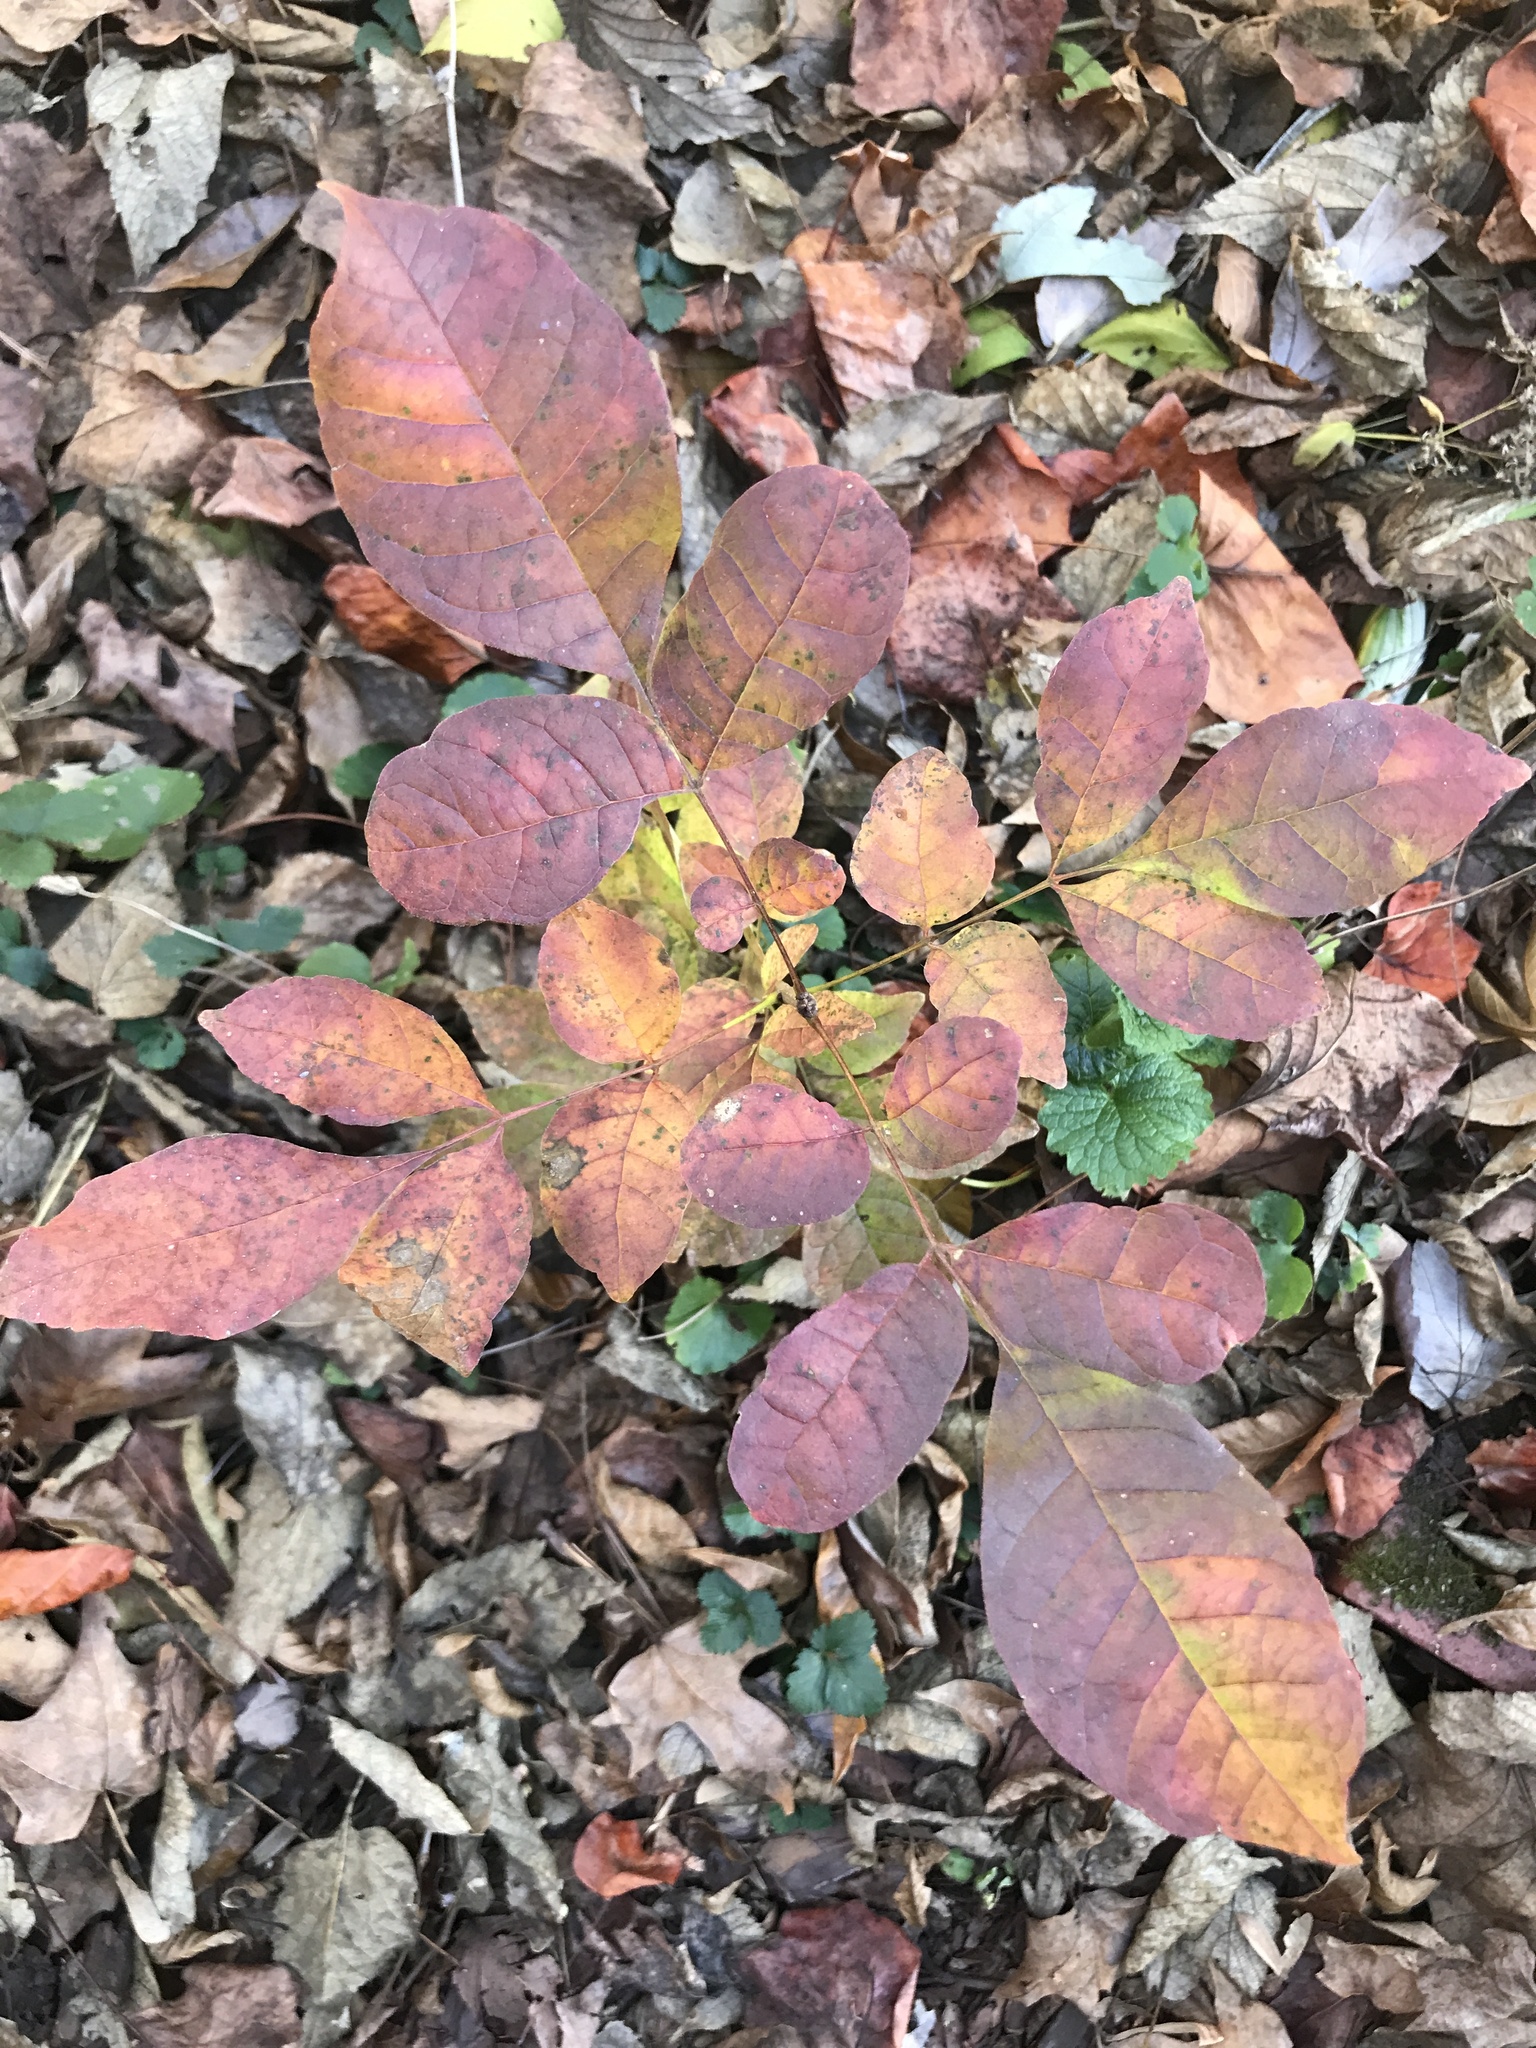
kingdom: Plantae
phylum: Tracheophyta
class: Magnoliopsida
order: Lamiales
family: Oleaceae
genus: Fraxinus
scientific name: Fraxinus americana
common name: White ash
